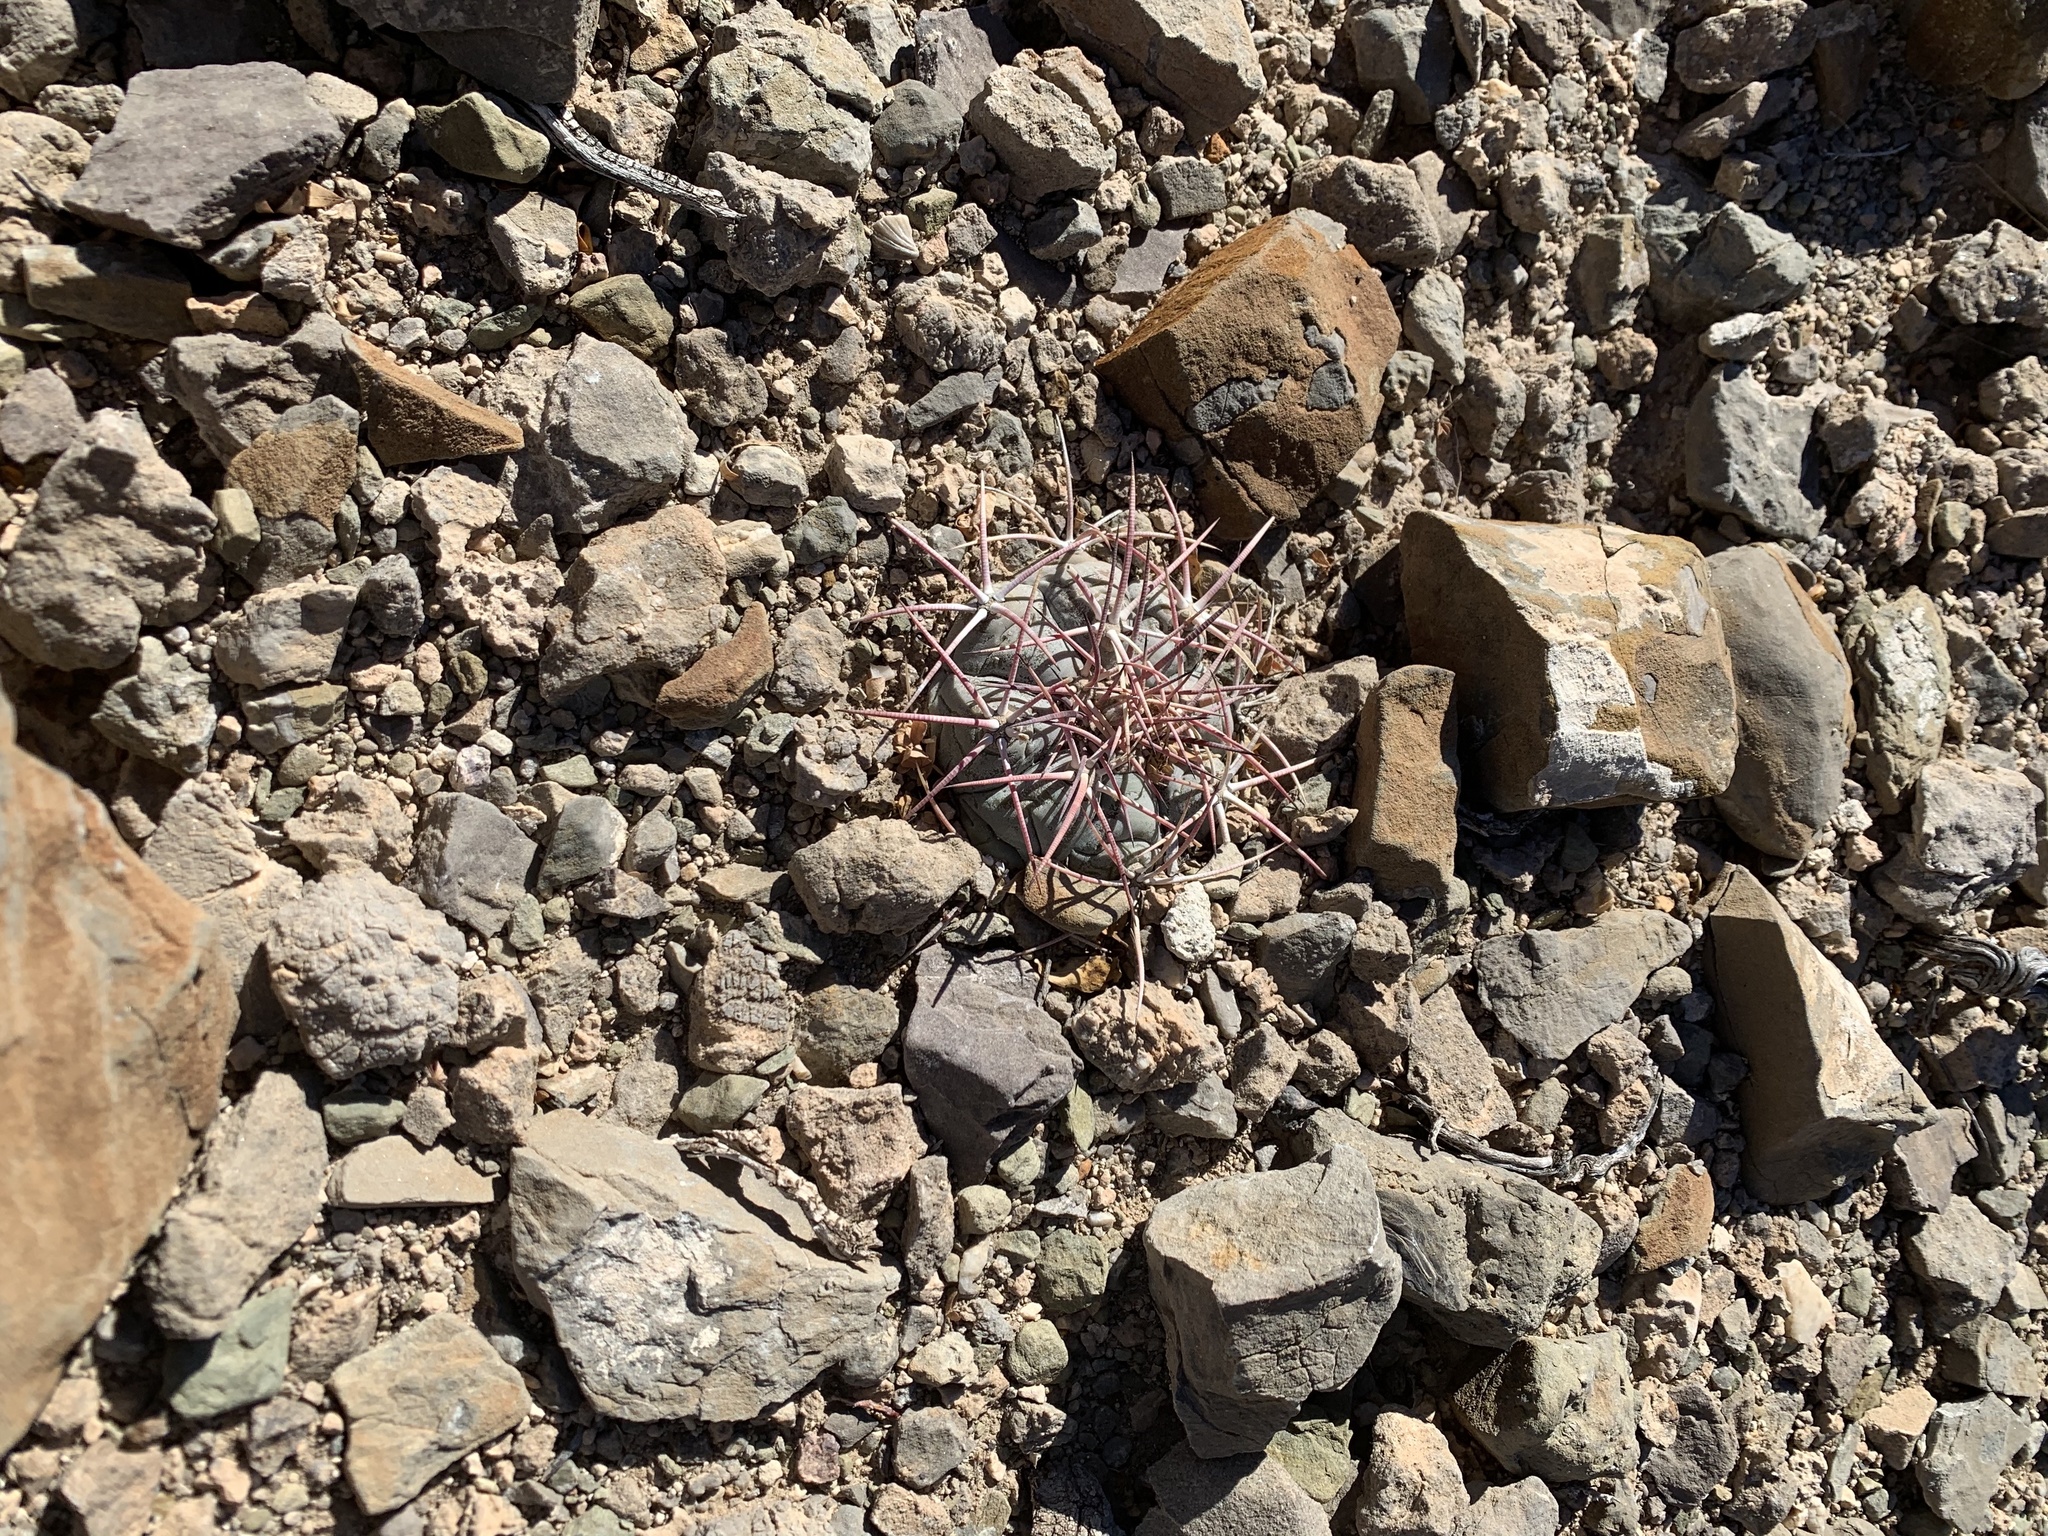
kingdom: Plantae
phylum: Tracheophyta
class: Magnoliopsida
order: Caryophyllales
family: Cactaceae
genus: Echinocactus
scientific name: Echinocactus horizonthalonius
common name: Devilshead
